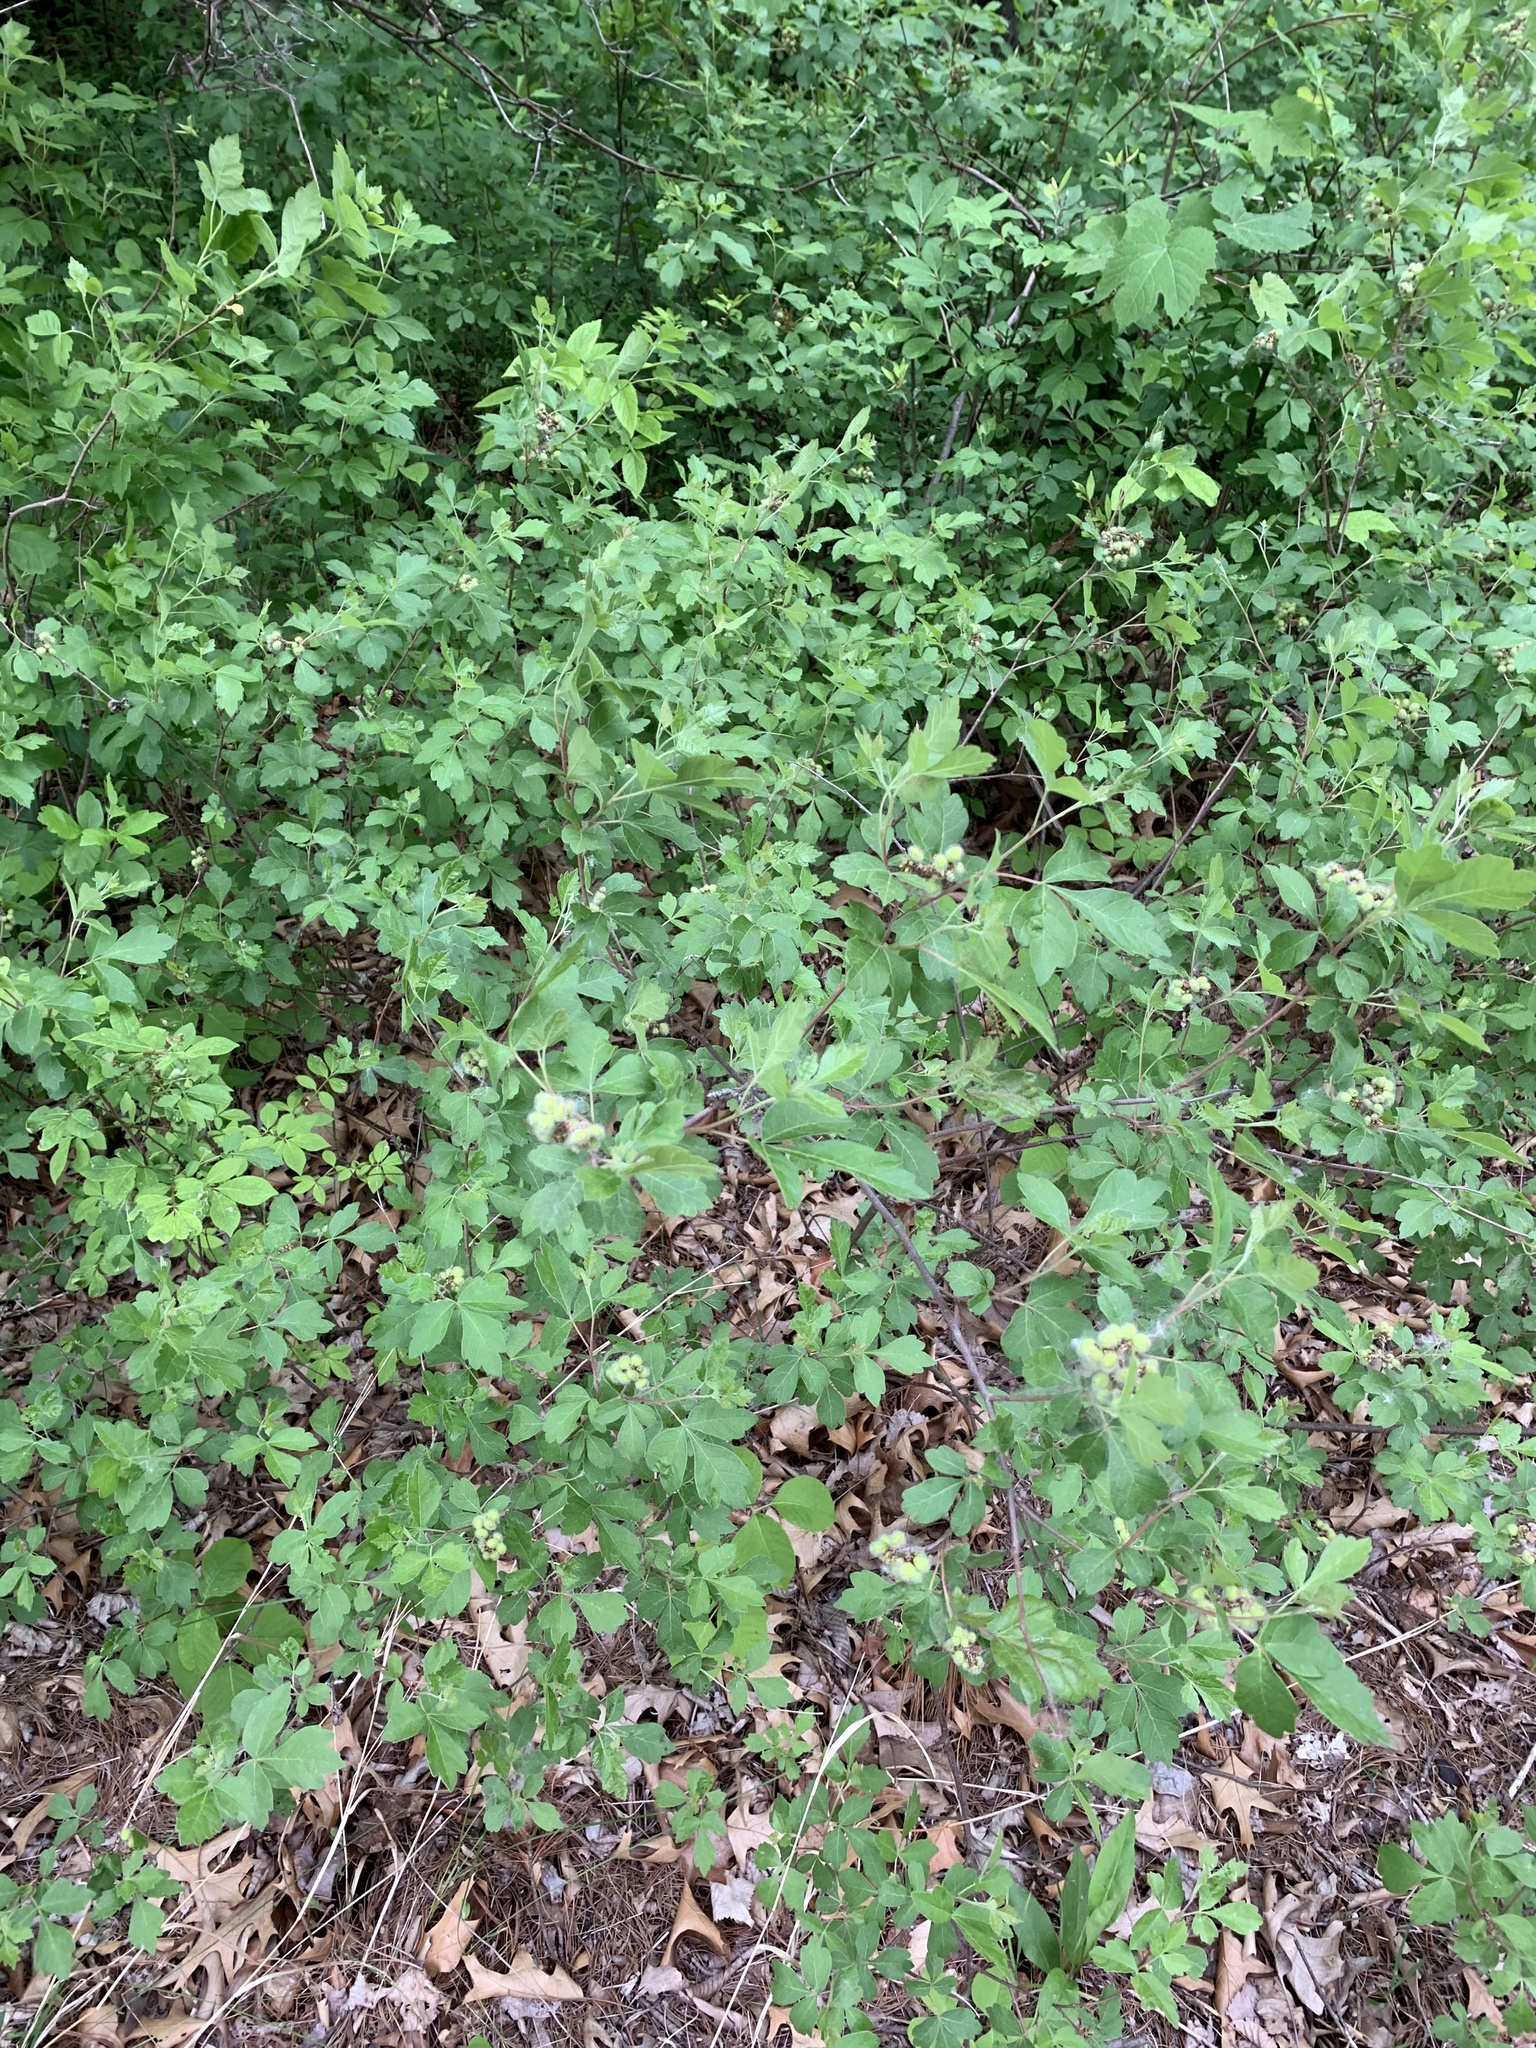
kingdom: Plantae
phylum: Tracheophyta
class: Magnoliopsida
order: Sapindales
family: Anacardiaceae
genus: Rhus
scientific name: Rhus aromatica
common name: Aromatic sumac
